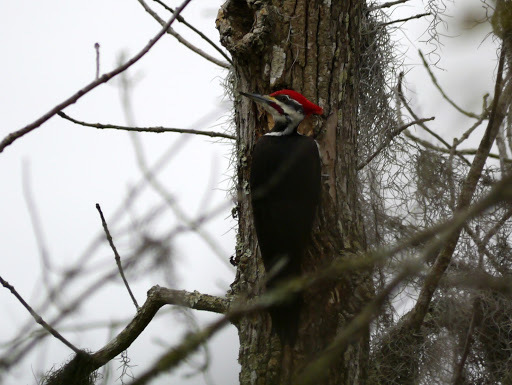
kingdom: Animalia
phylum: Chordata
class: Aves
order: Piciformes
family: Picidae
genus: Dryocopus
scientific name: Dryocopus pileatus
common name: Pileated woodpecker
